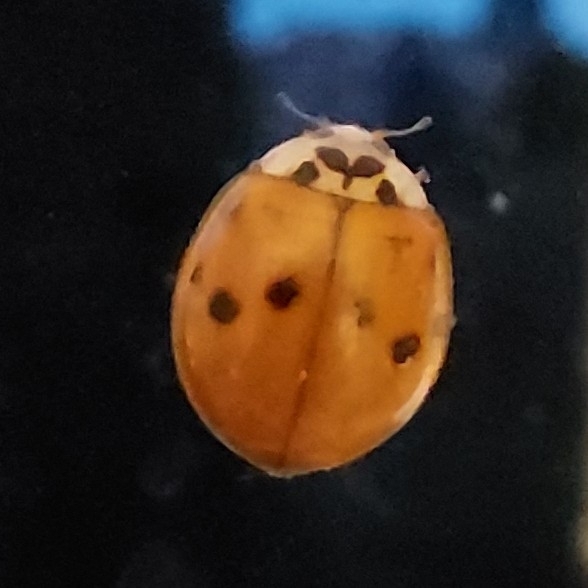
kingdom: Animalia
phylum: Arthropoda
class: Insecta
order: Coleoptera
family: Coccinellidae
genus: Harmonia
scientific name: Harmonia axyridis
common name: Harlequin ladybird
